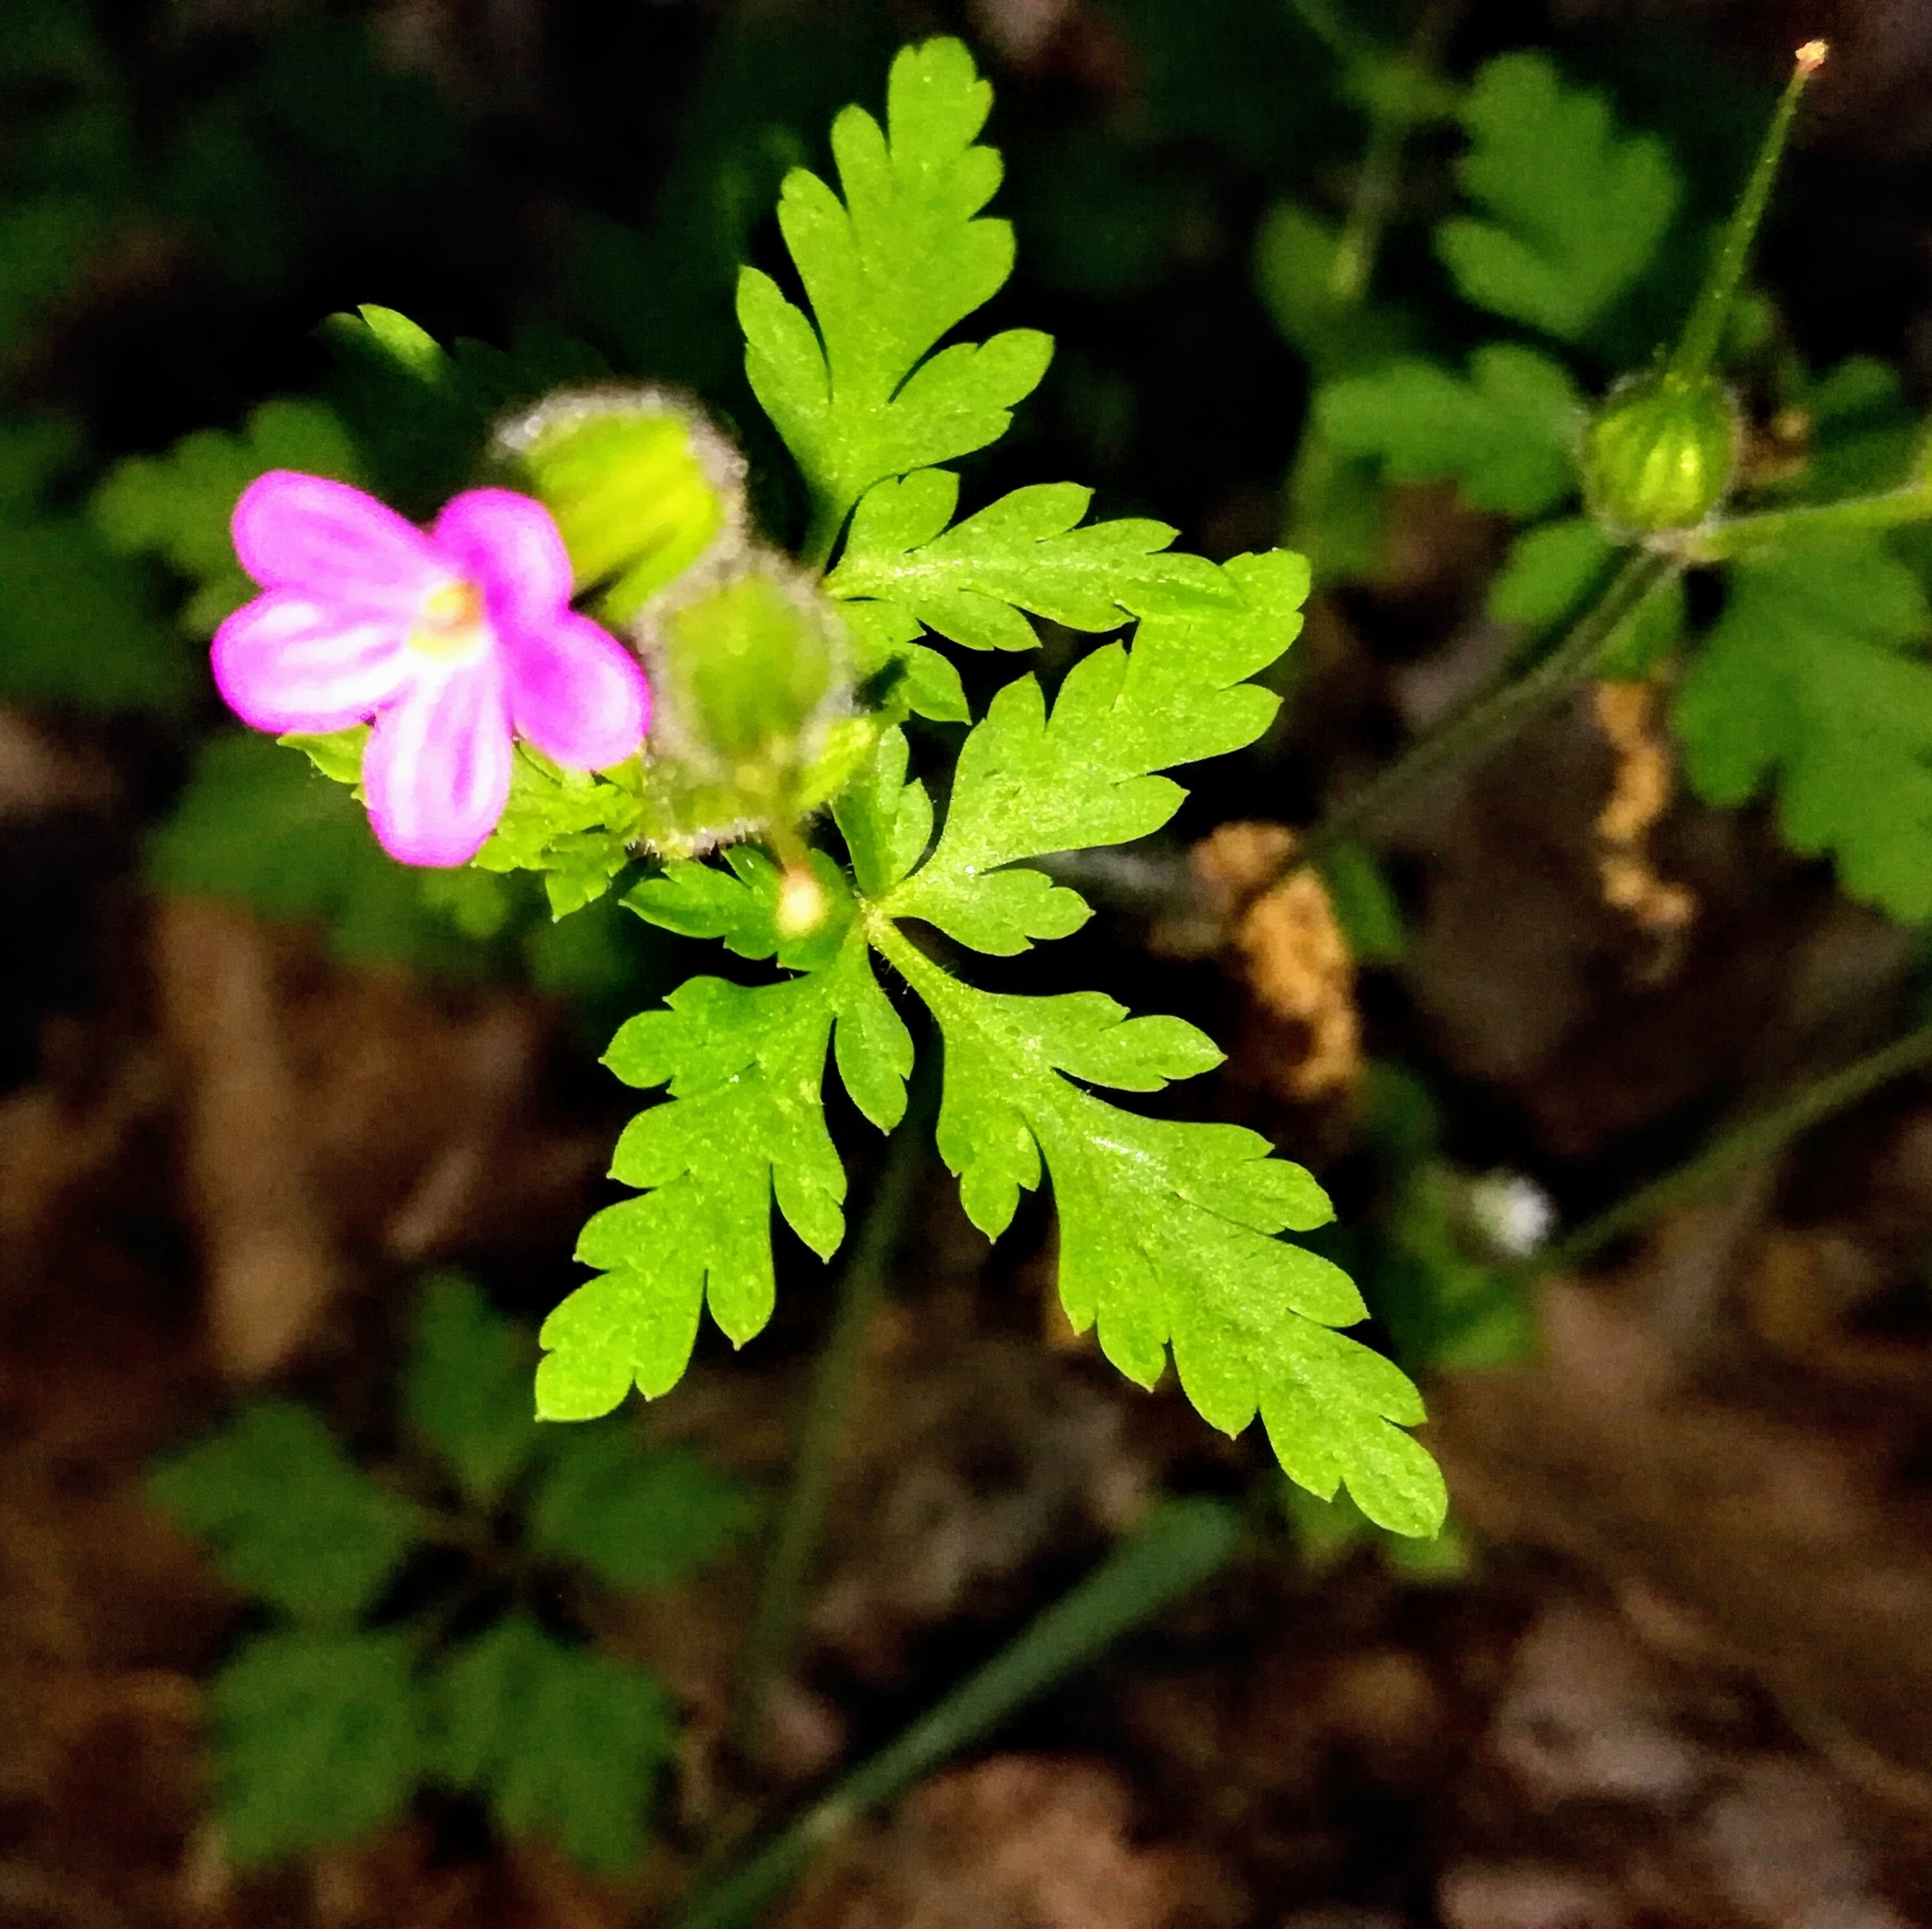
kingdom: Plantae
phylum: Tracheophyta
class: Magnoliopsida
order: Geraniales
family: Geraniaceae
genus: Geranium
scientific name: Geranium purpureum
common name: Little-robin
